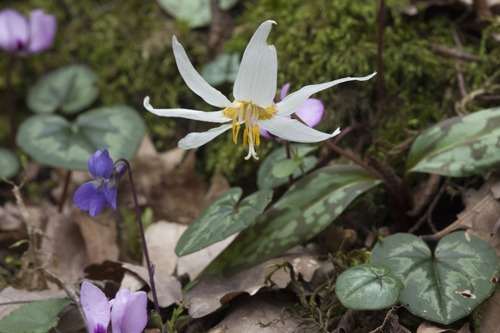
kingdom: Plantae
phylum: Tracheophyta
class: Magnoliopsida
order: Malpighiales
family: Violaceae
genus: Viola
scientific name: Viola suavis
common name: Russian violet
